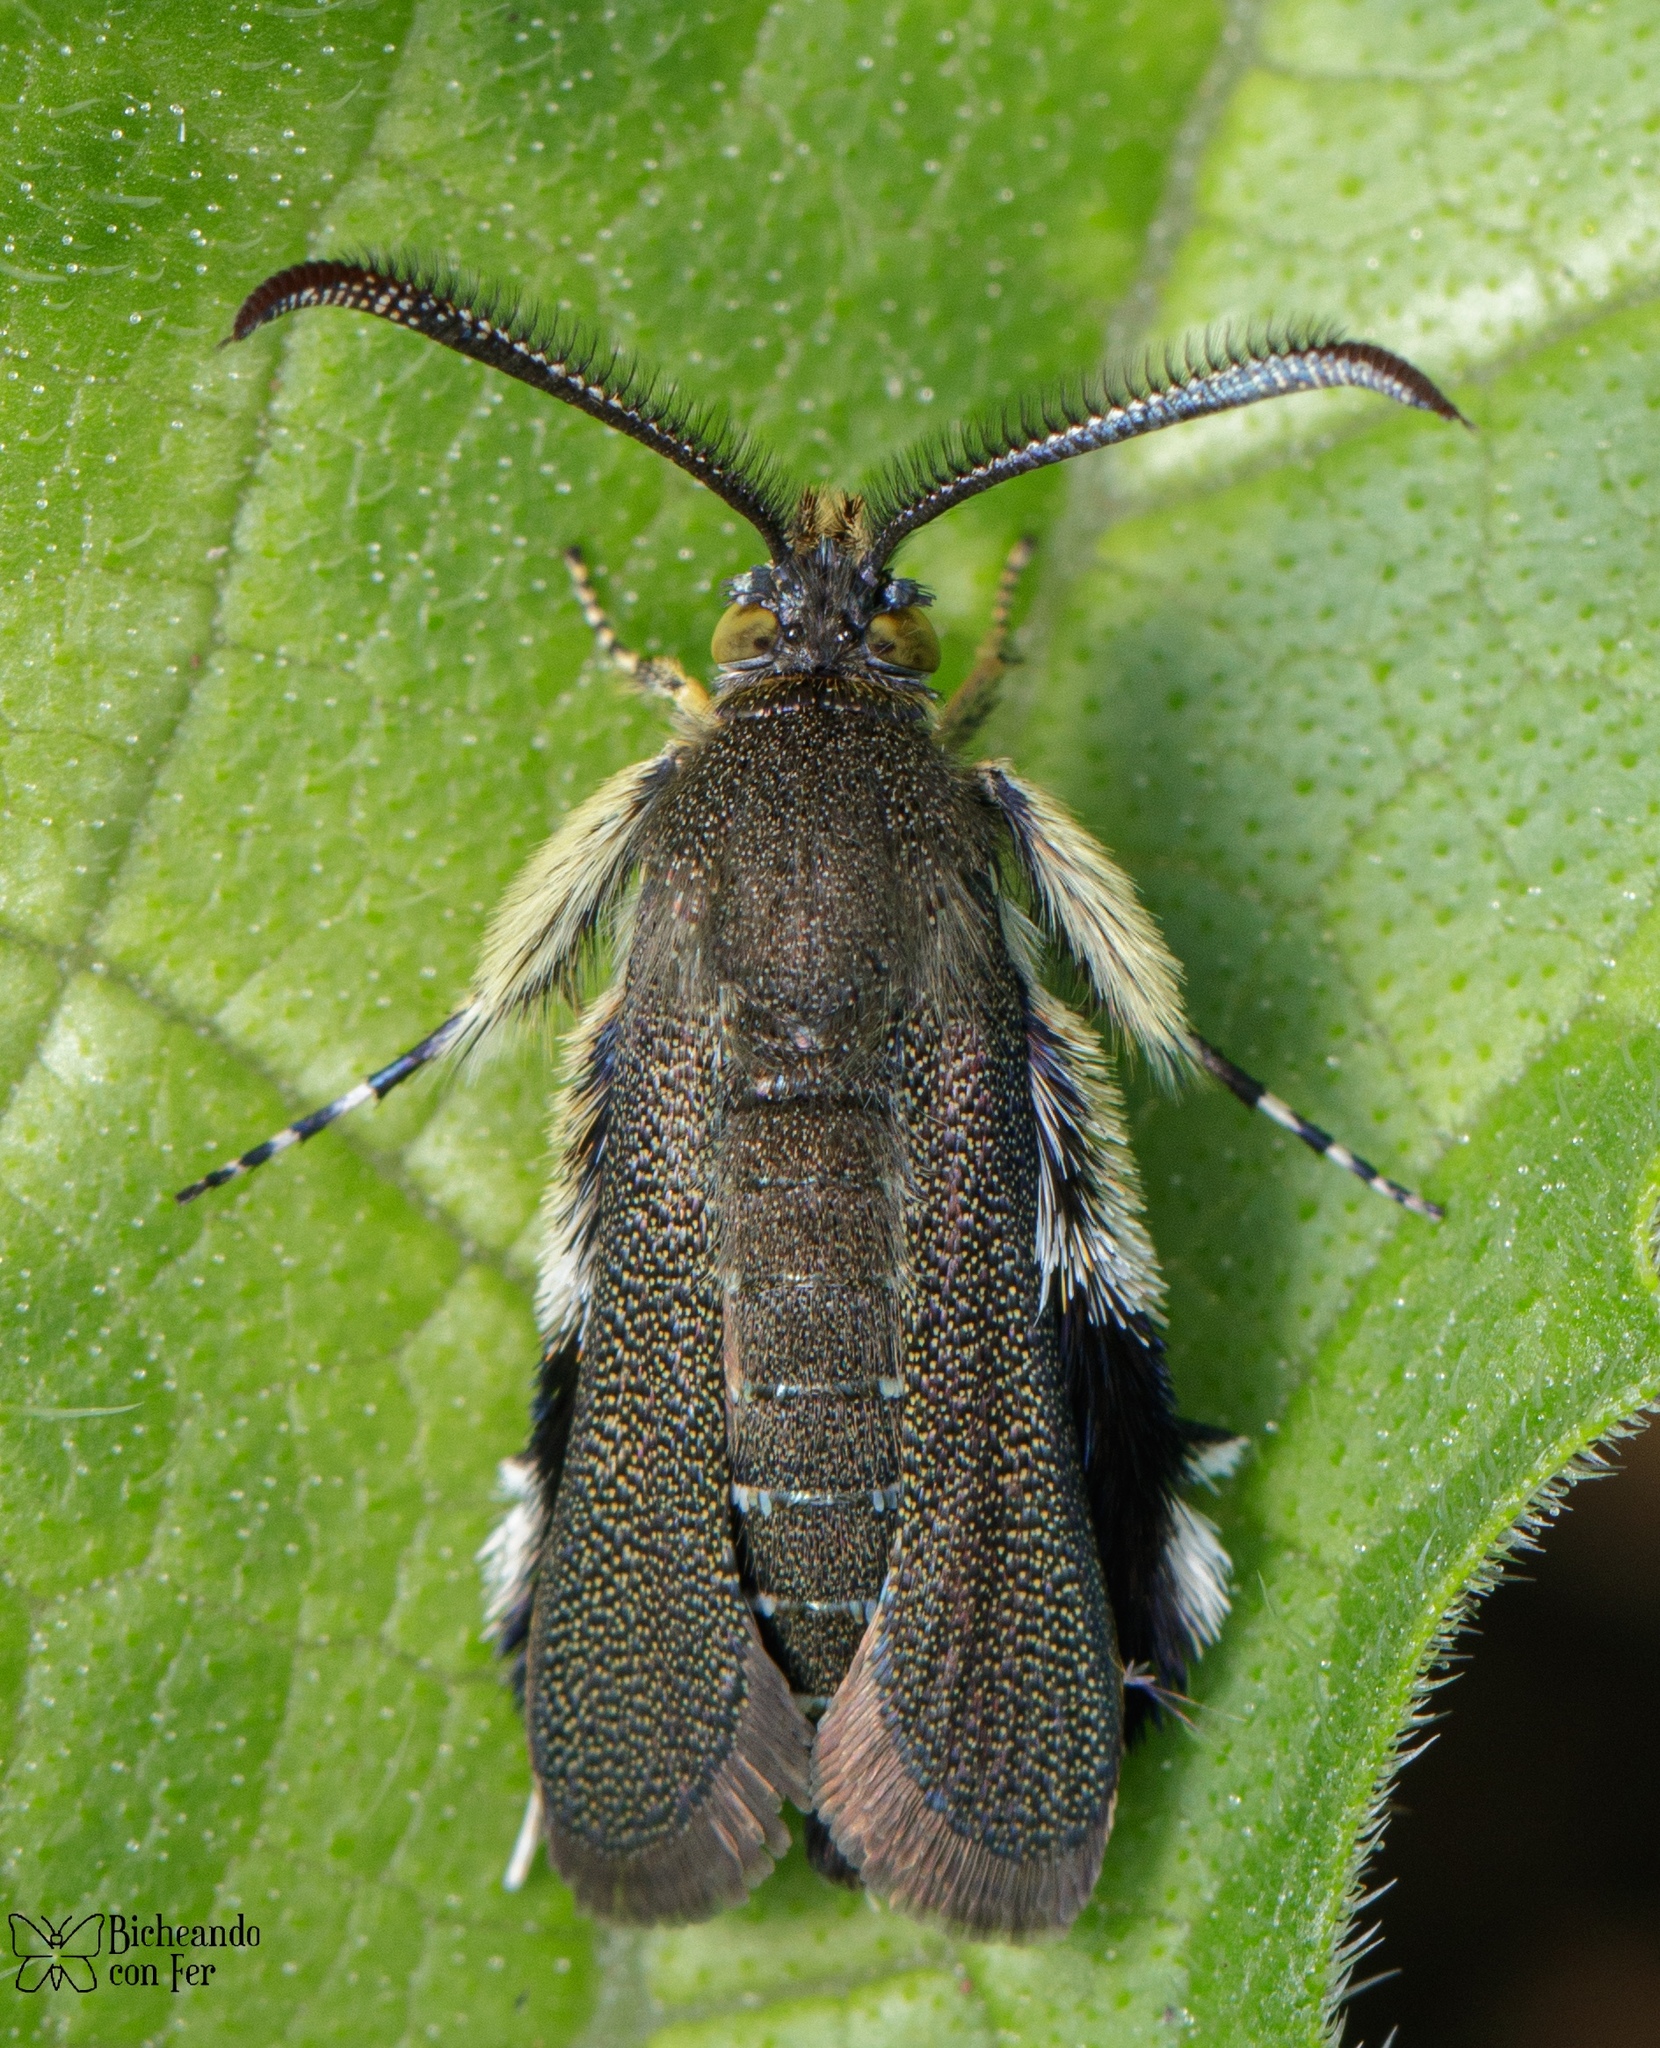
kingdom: Animalia
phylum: Arthropoda
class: Insecta
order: Lepidoptera
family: Sesiidae
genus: Eichlinia
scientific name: Eichlinia eichlini
